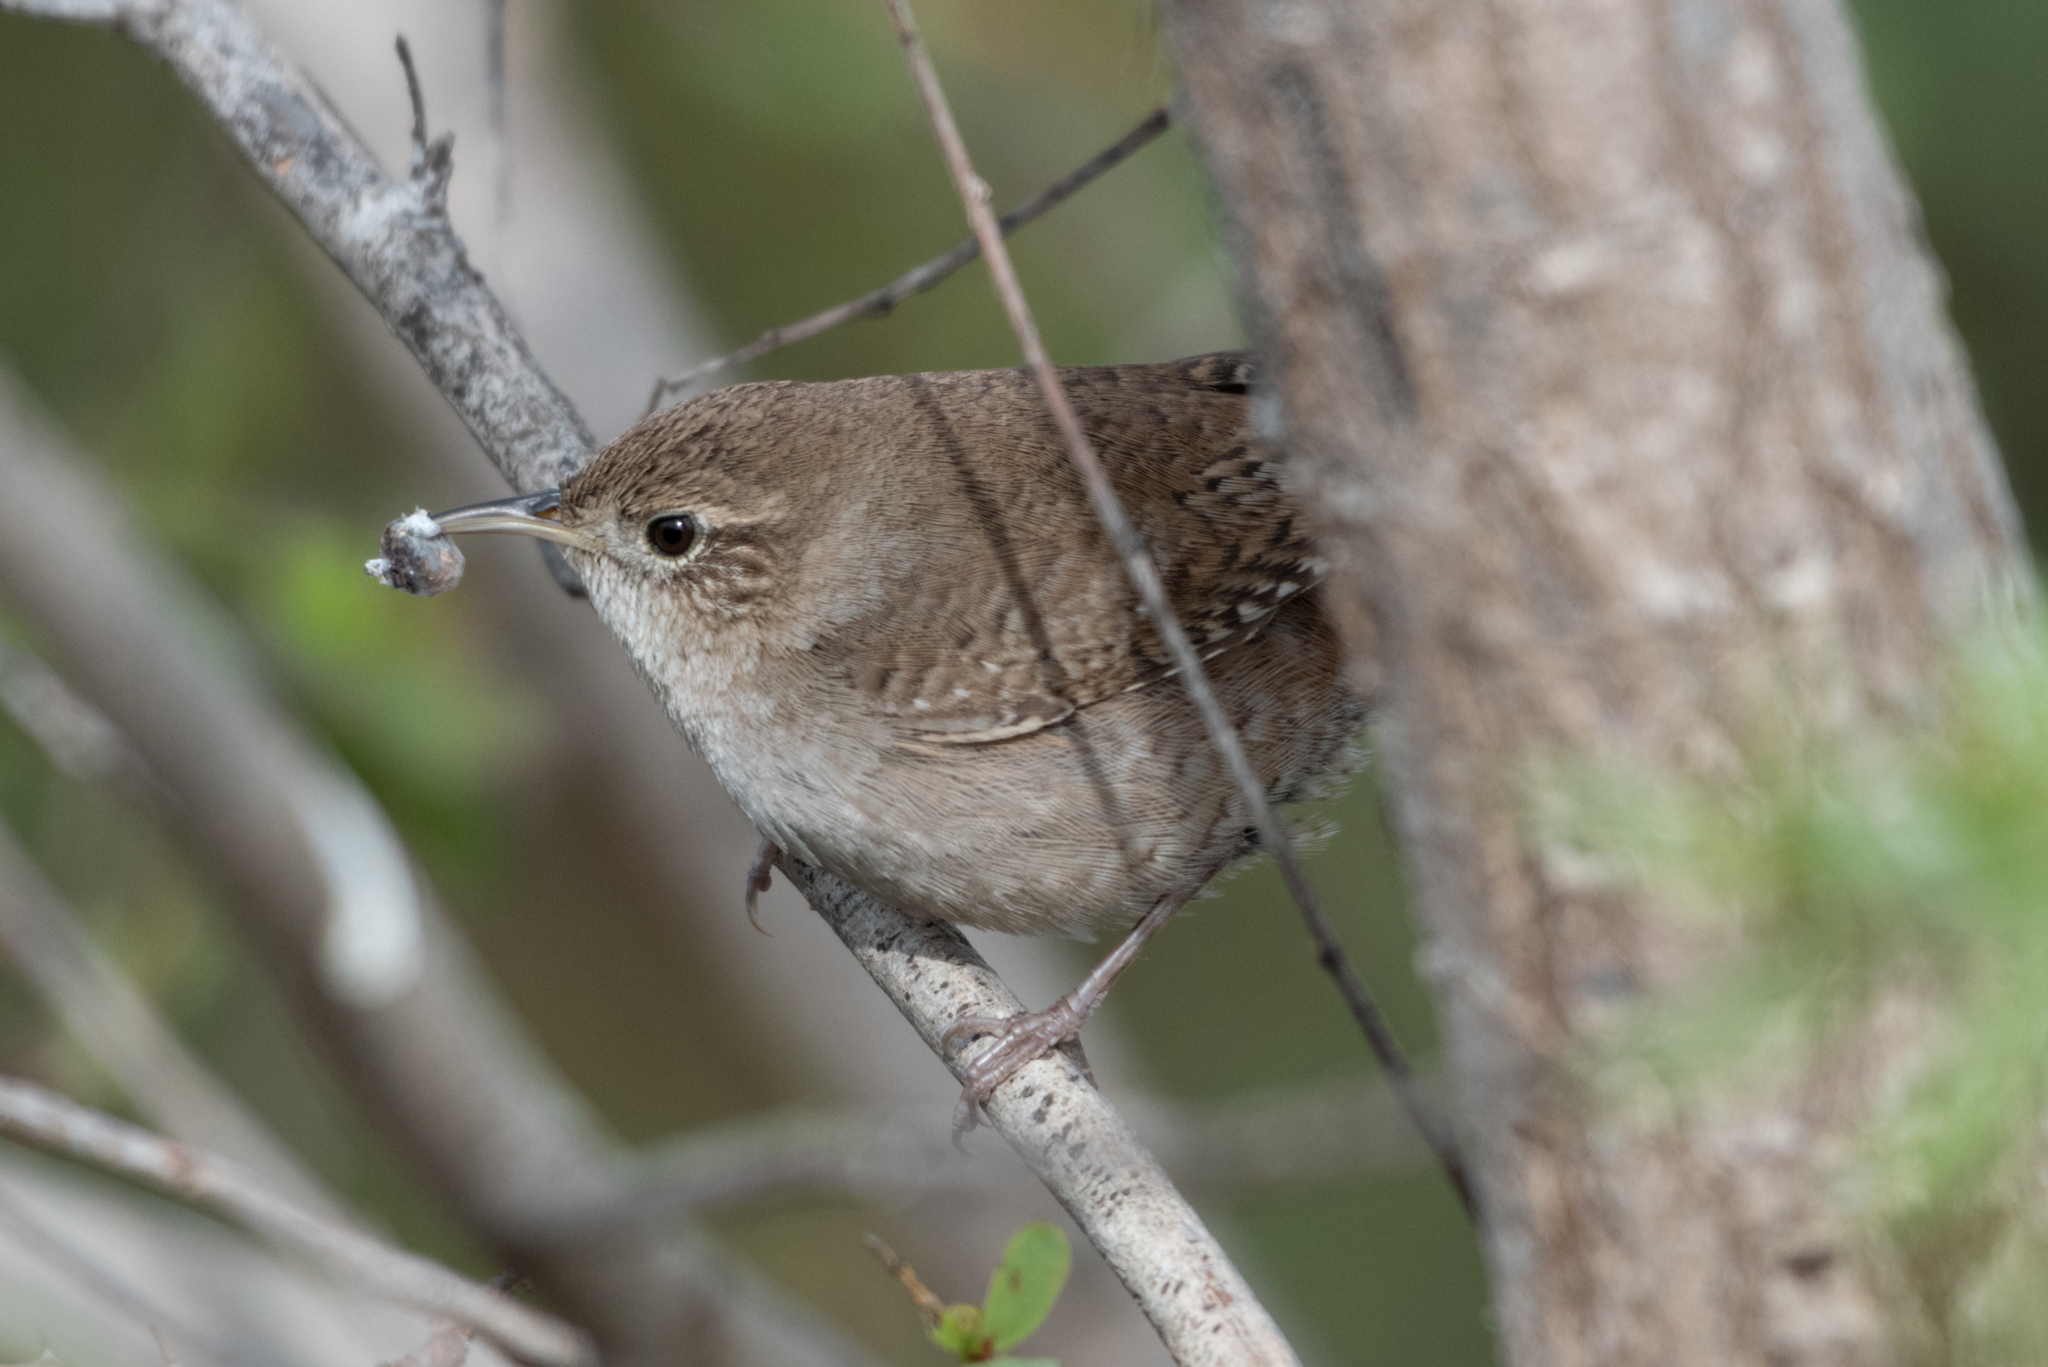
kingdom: Animalia
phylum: Chordata
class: Aves
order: Passeriformes
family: Troglodytidae
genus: Troglodytes
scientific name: Troglodytes aedon
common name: House wren
